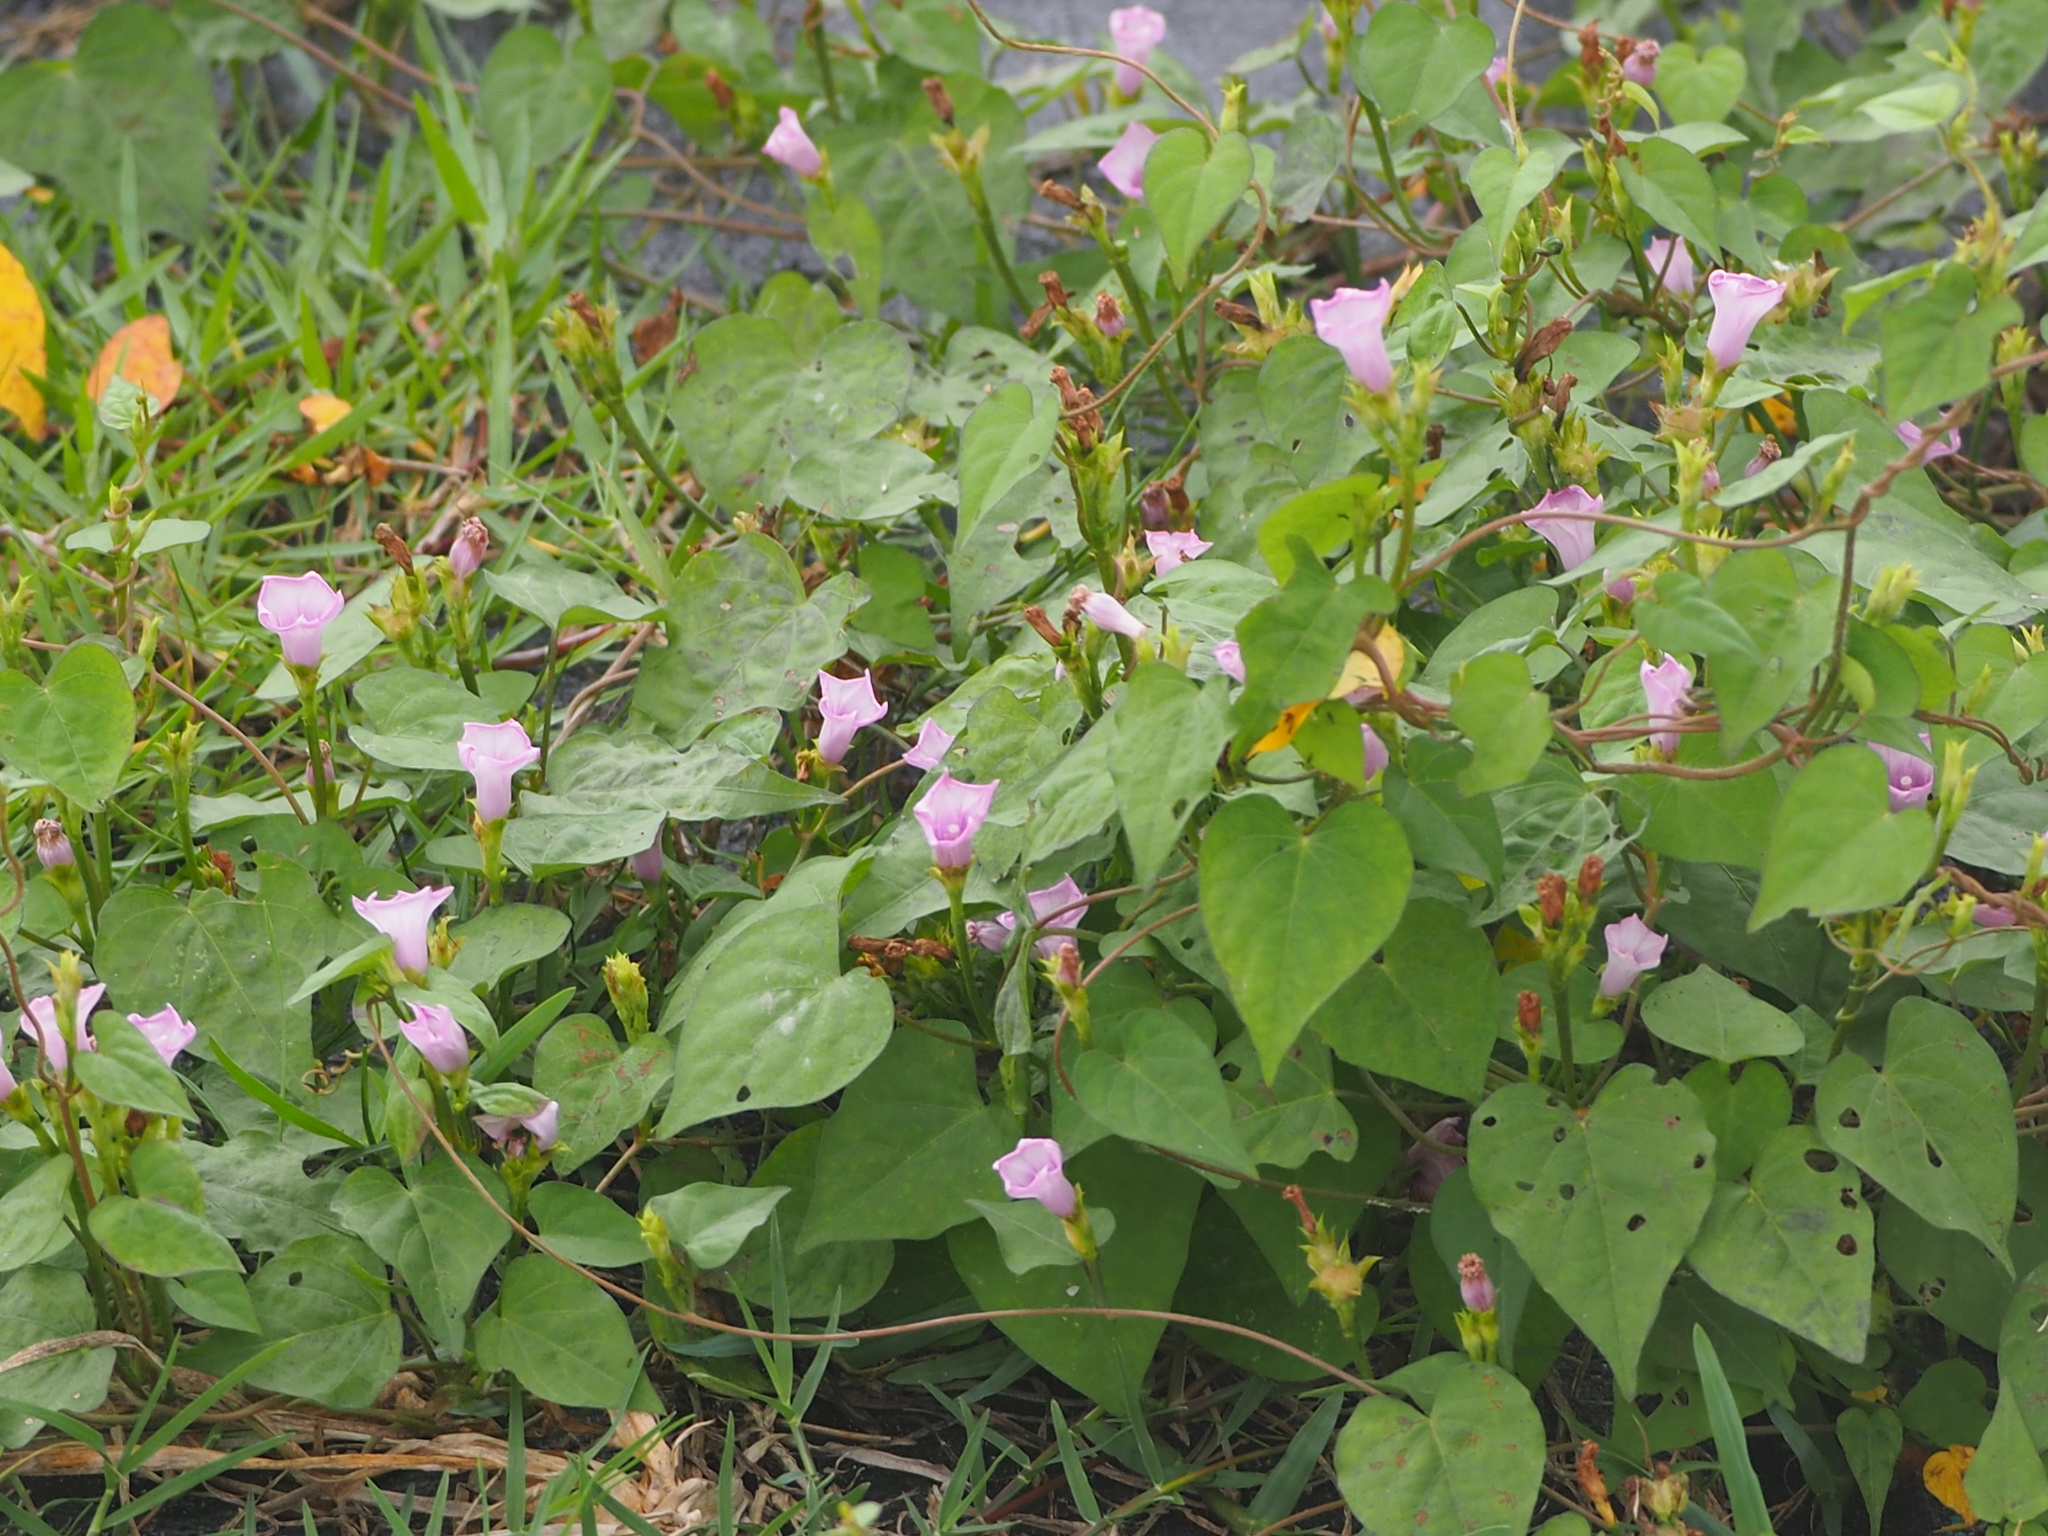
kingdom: Plantae
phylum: Tracheophyta
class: Magnoliopsida
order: Solanales
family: Convolvulaceae
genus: Ipomoea
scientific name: Ipomoea triloba
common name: Little-bell
